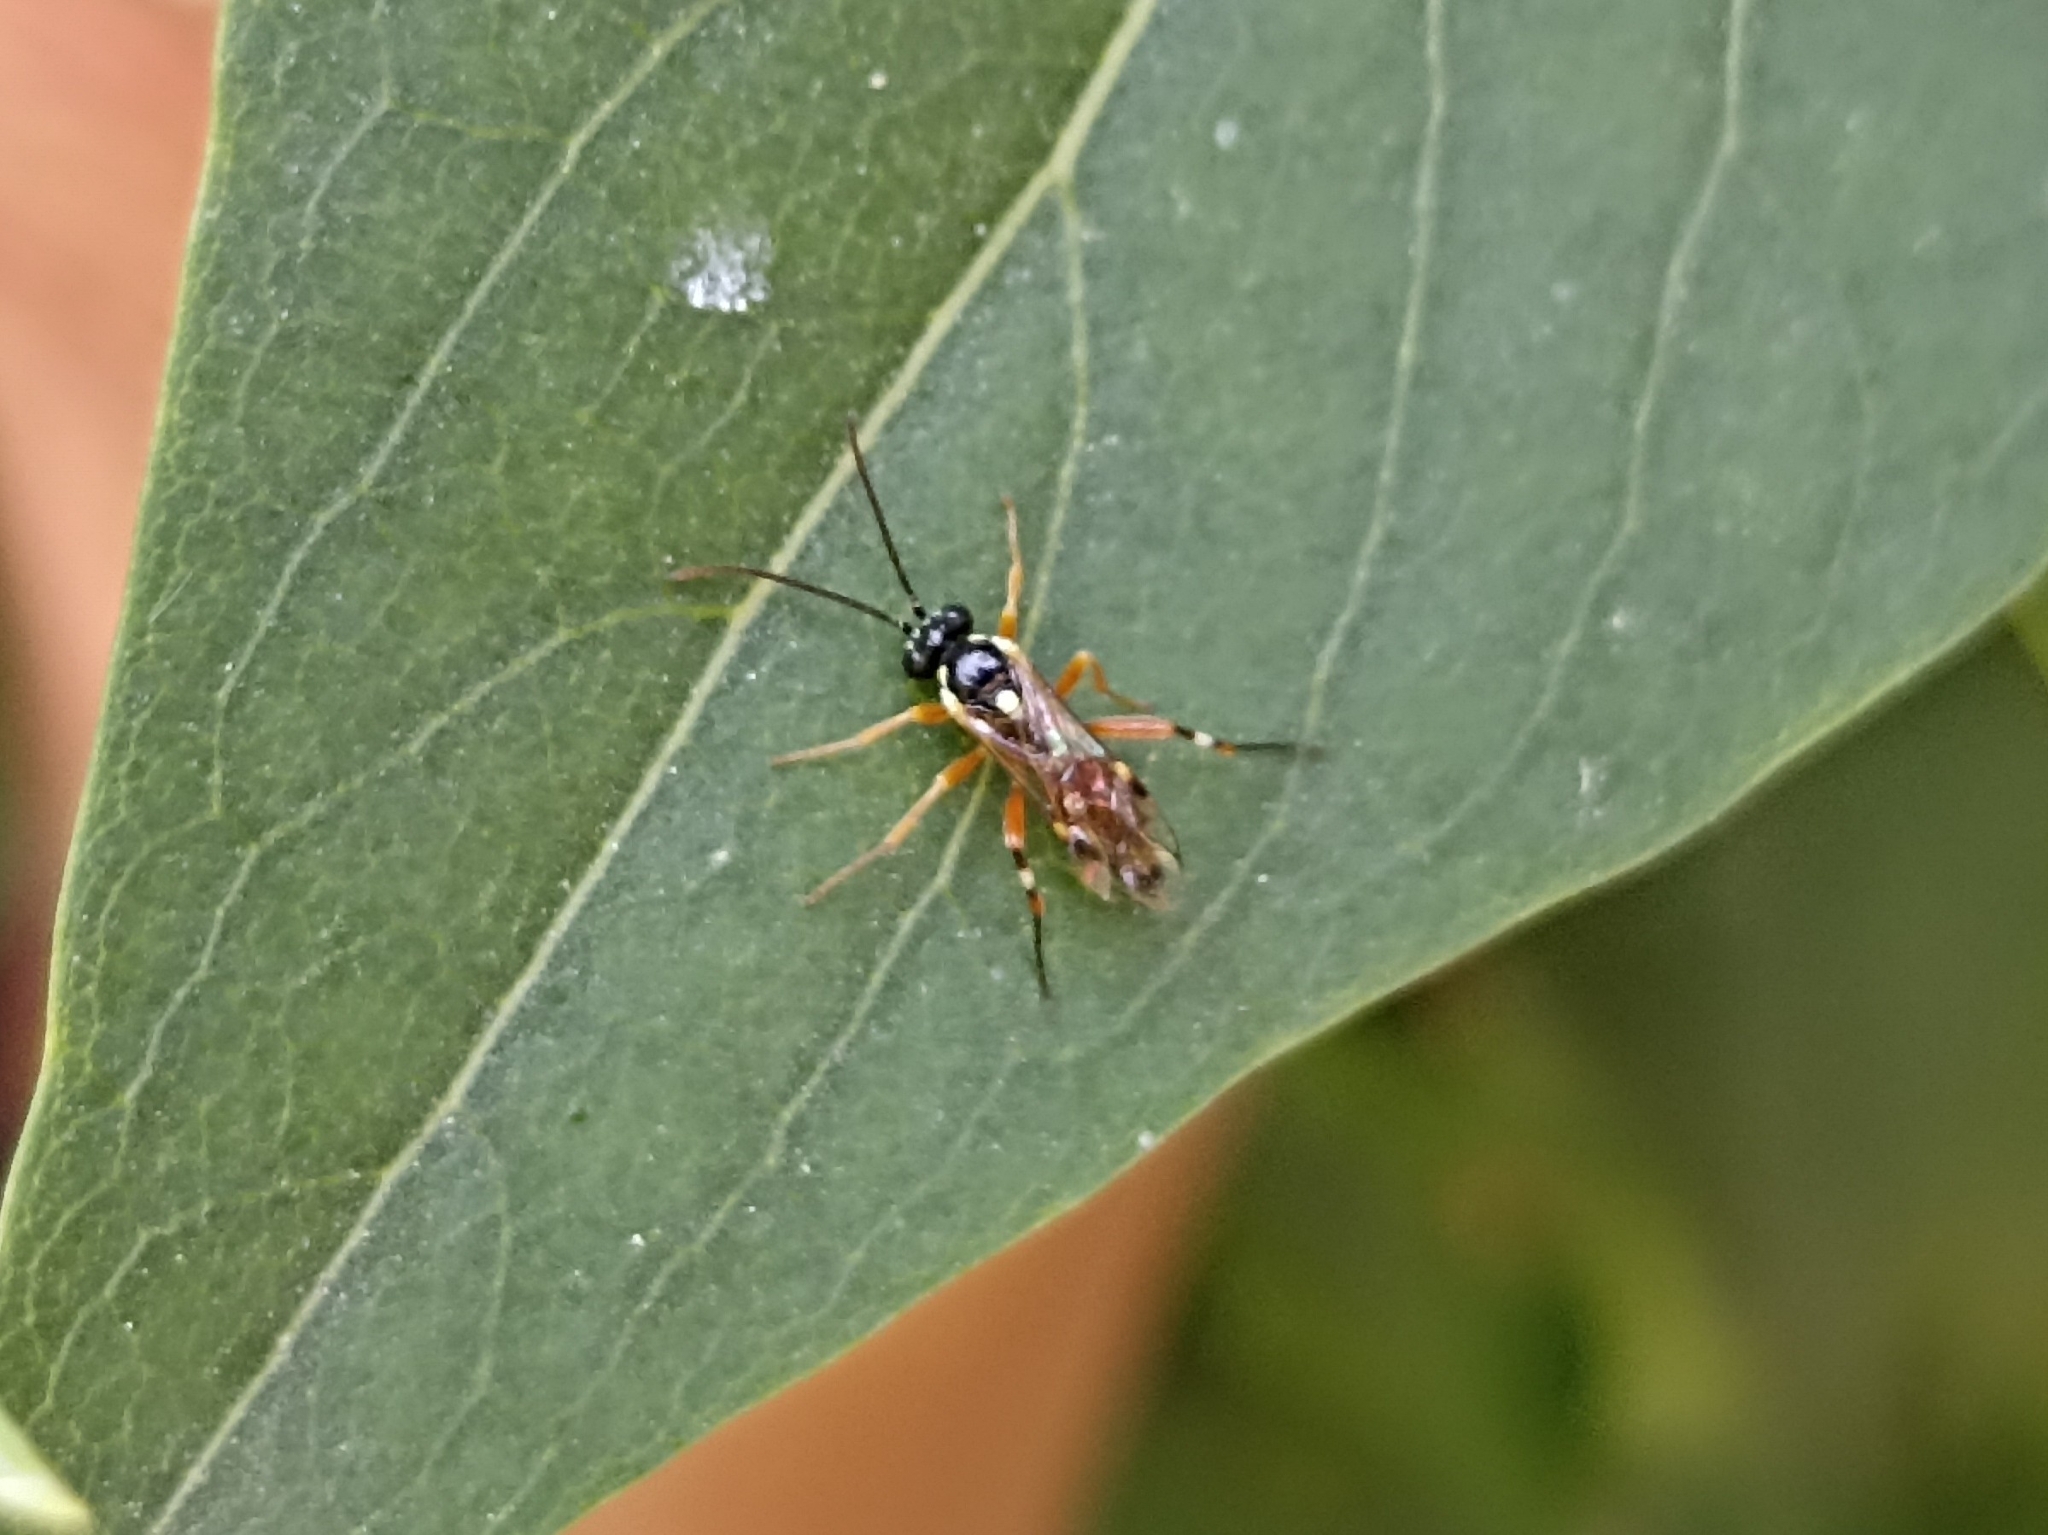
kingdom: Animalia
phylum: Arthropoda
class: Insecta
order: Hymenoptera
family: Ichneumonidae
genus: Diplazon
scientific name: Diplazon laetatorius
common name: Parasitoid wasp
